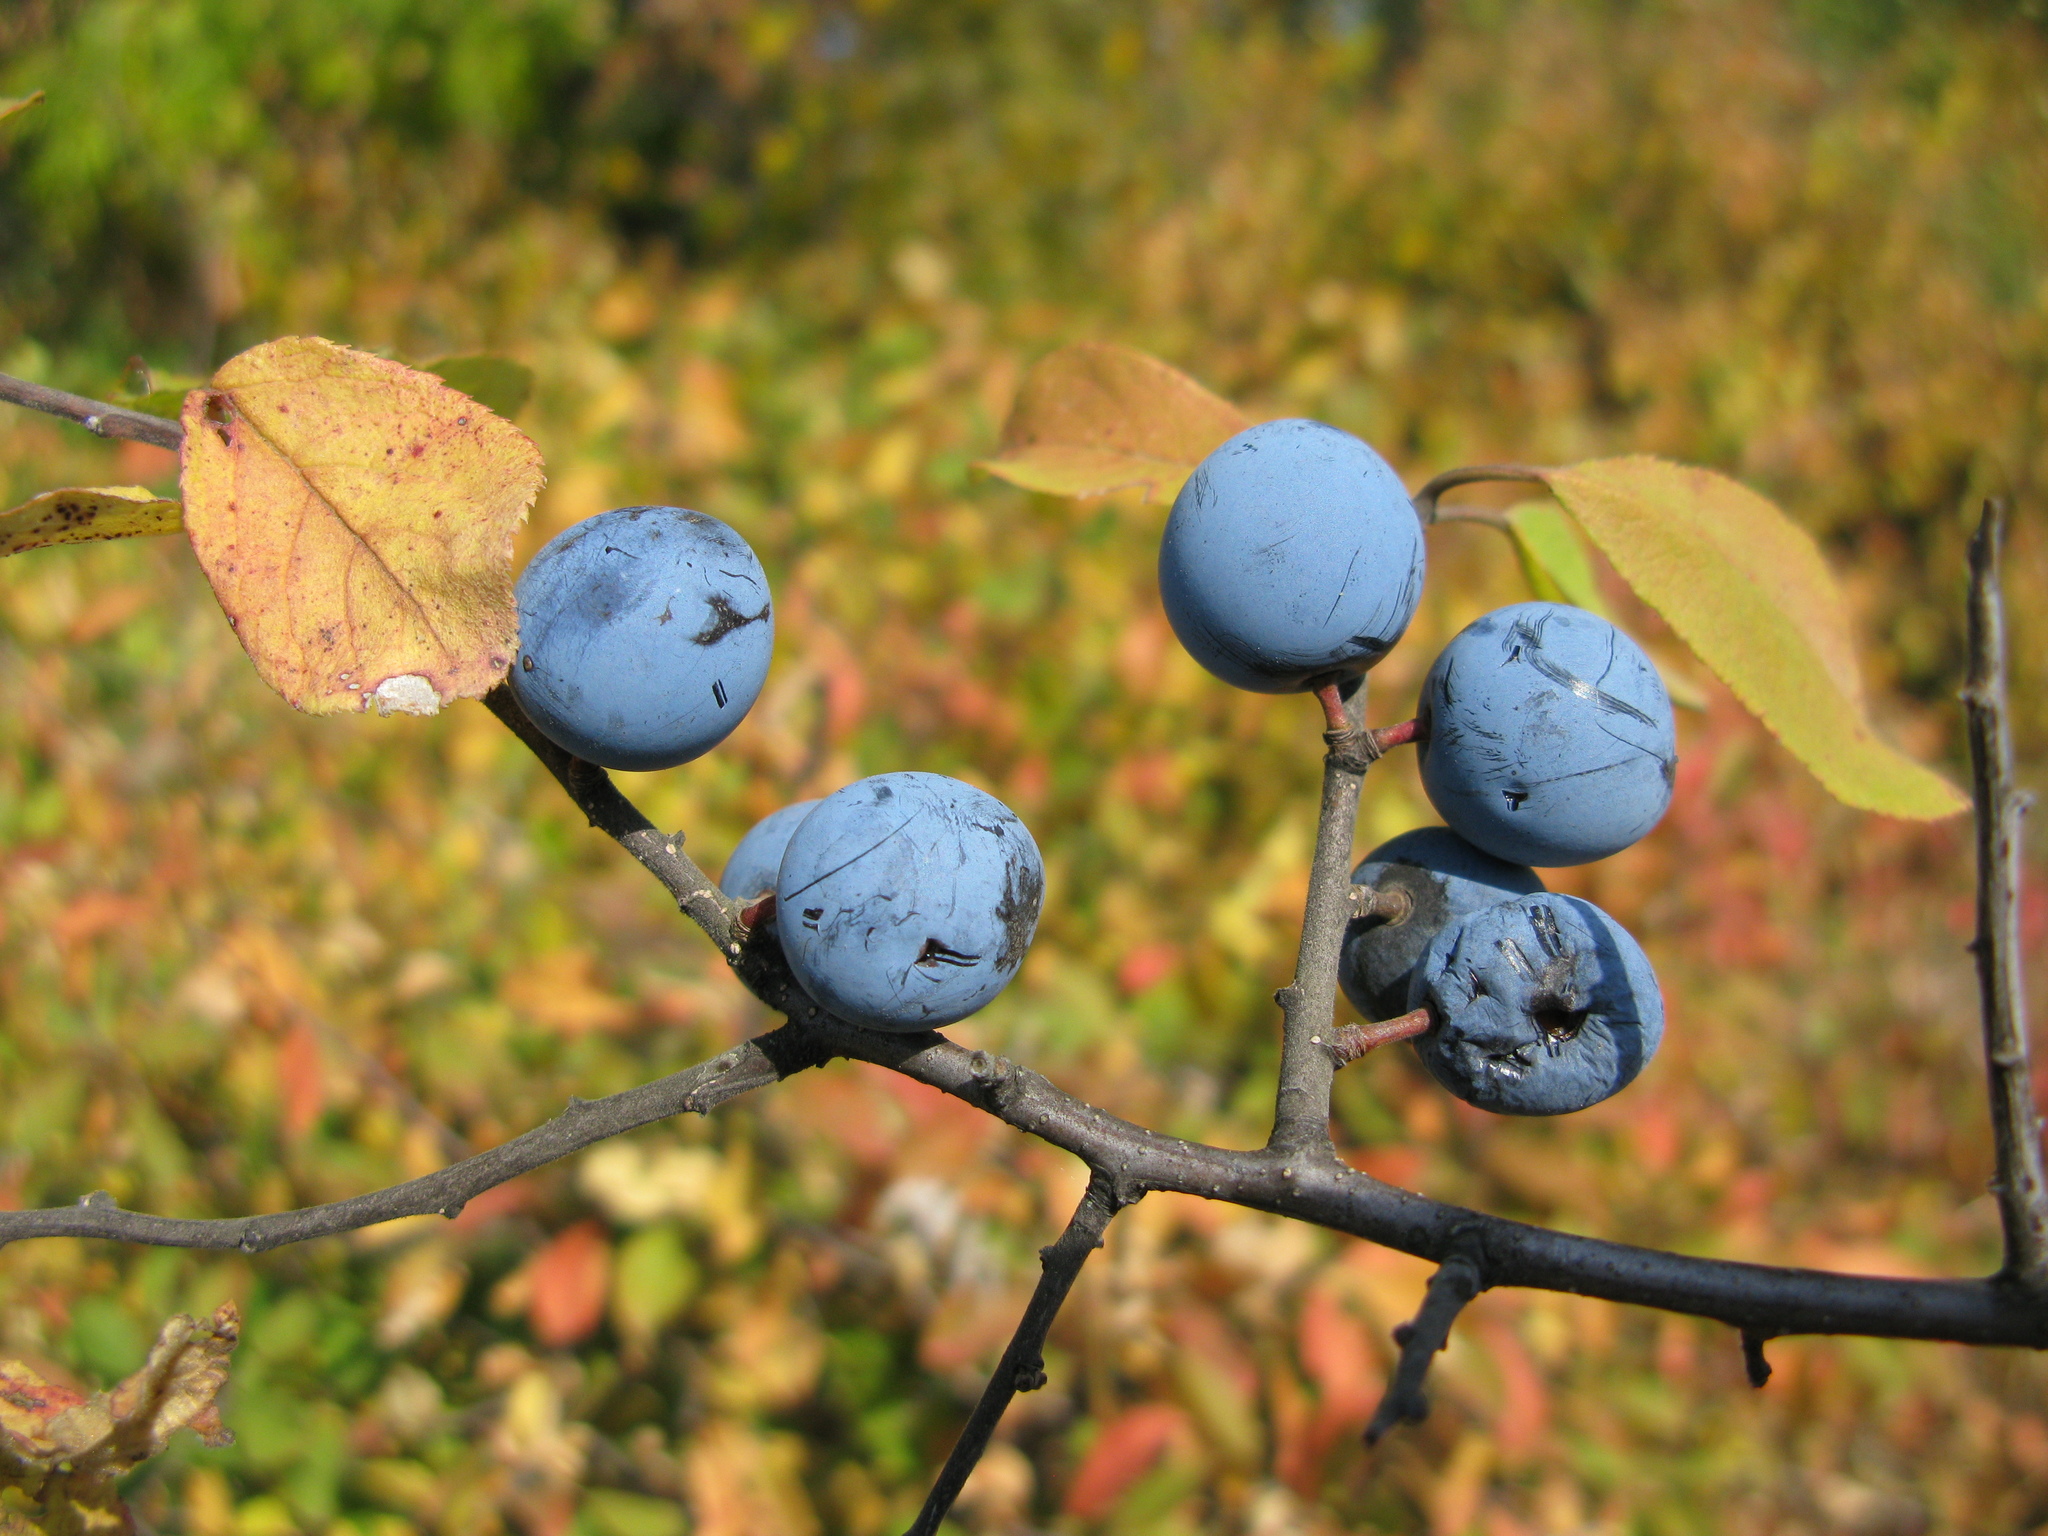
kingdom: Plantae
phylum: Tracheophyta
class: Magnoliopsida
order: Rosales
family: Rosaceae
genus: Prunus
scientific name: Prunus spinosa
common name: Blackthorn
